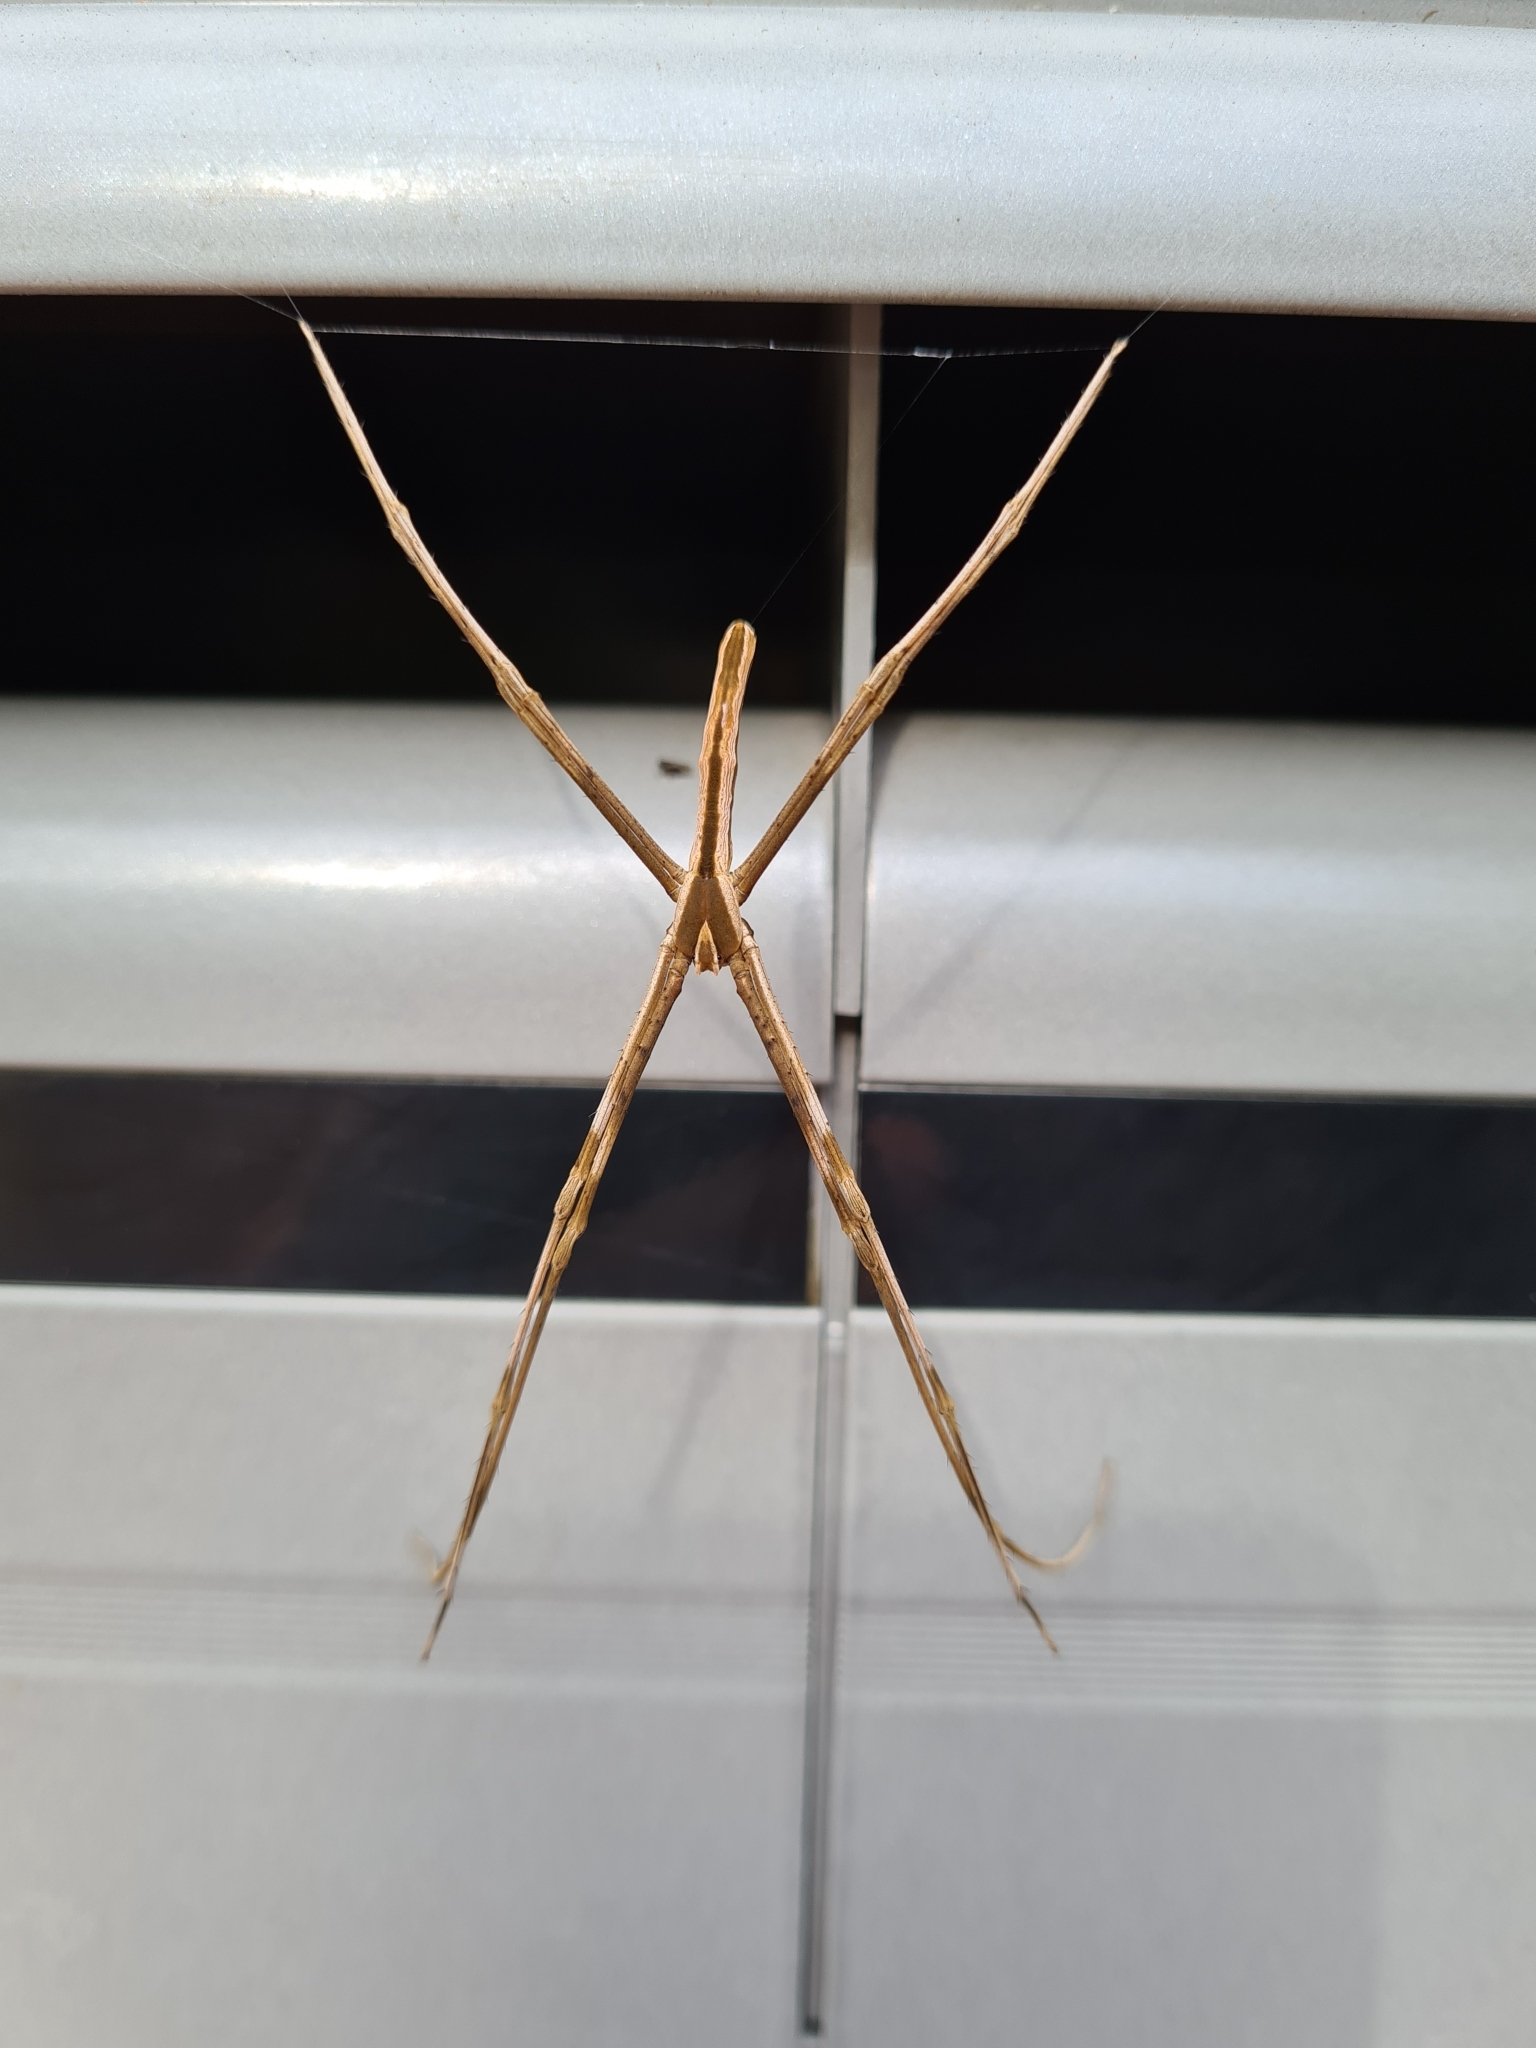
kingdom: Animalia
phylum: Arthropoda
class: Arachnida
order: Araneae
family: Deinopidae
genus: Deinopis
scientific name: Deinopis subrufa
